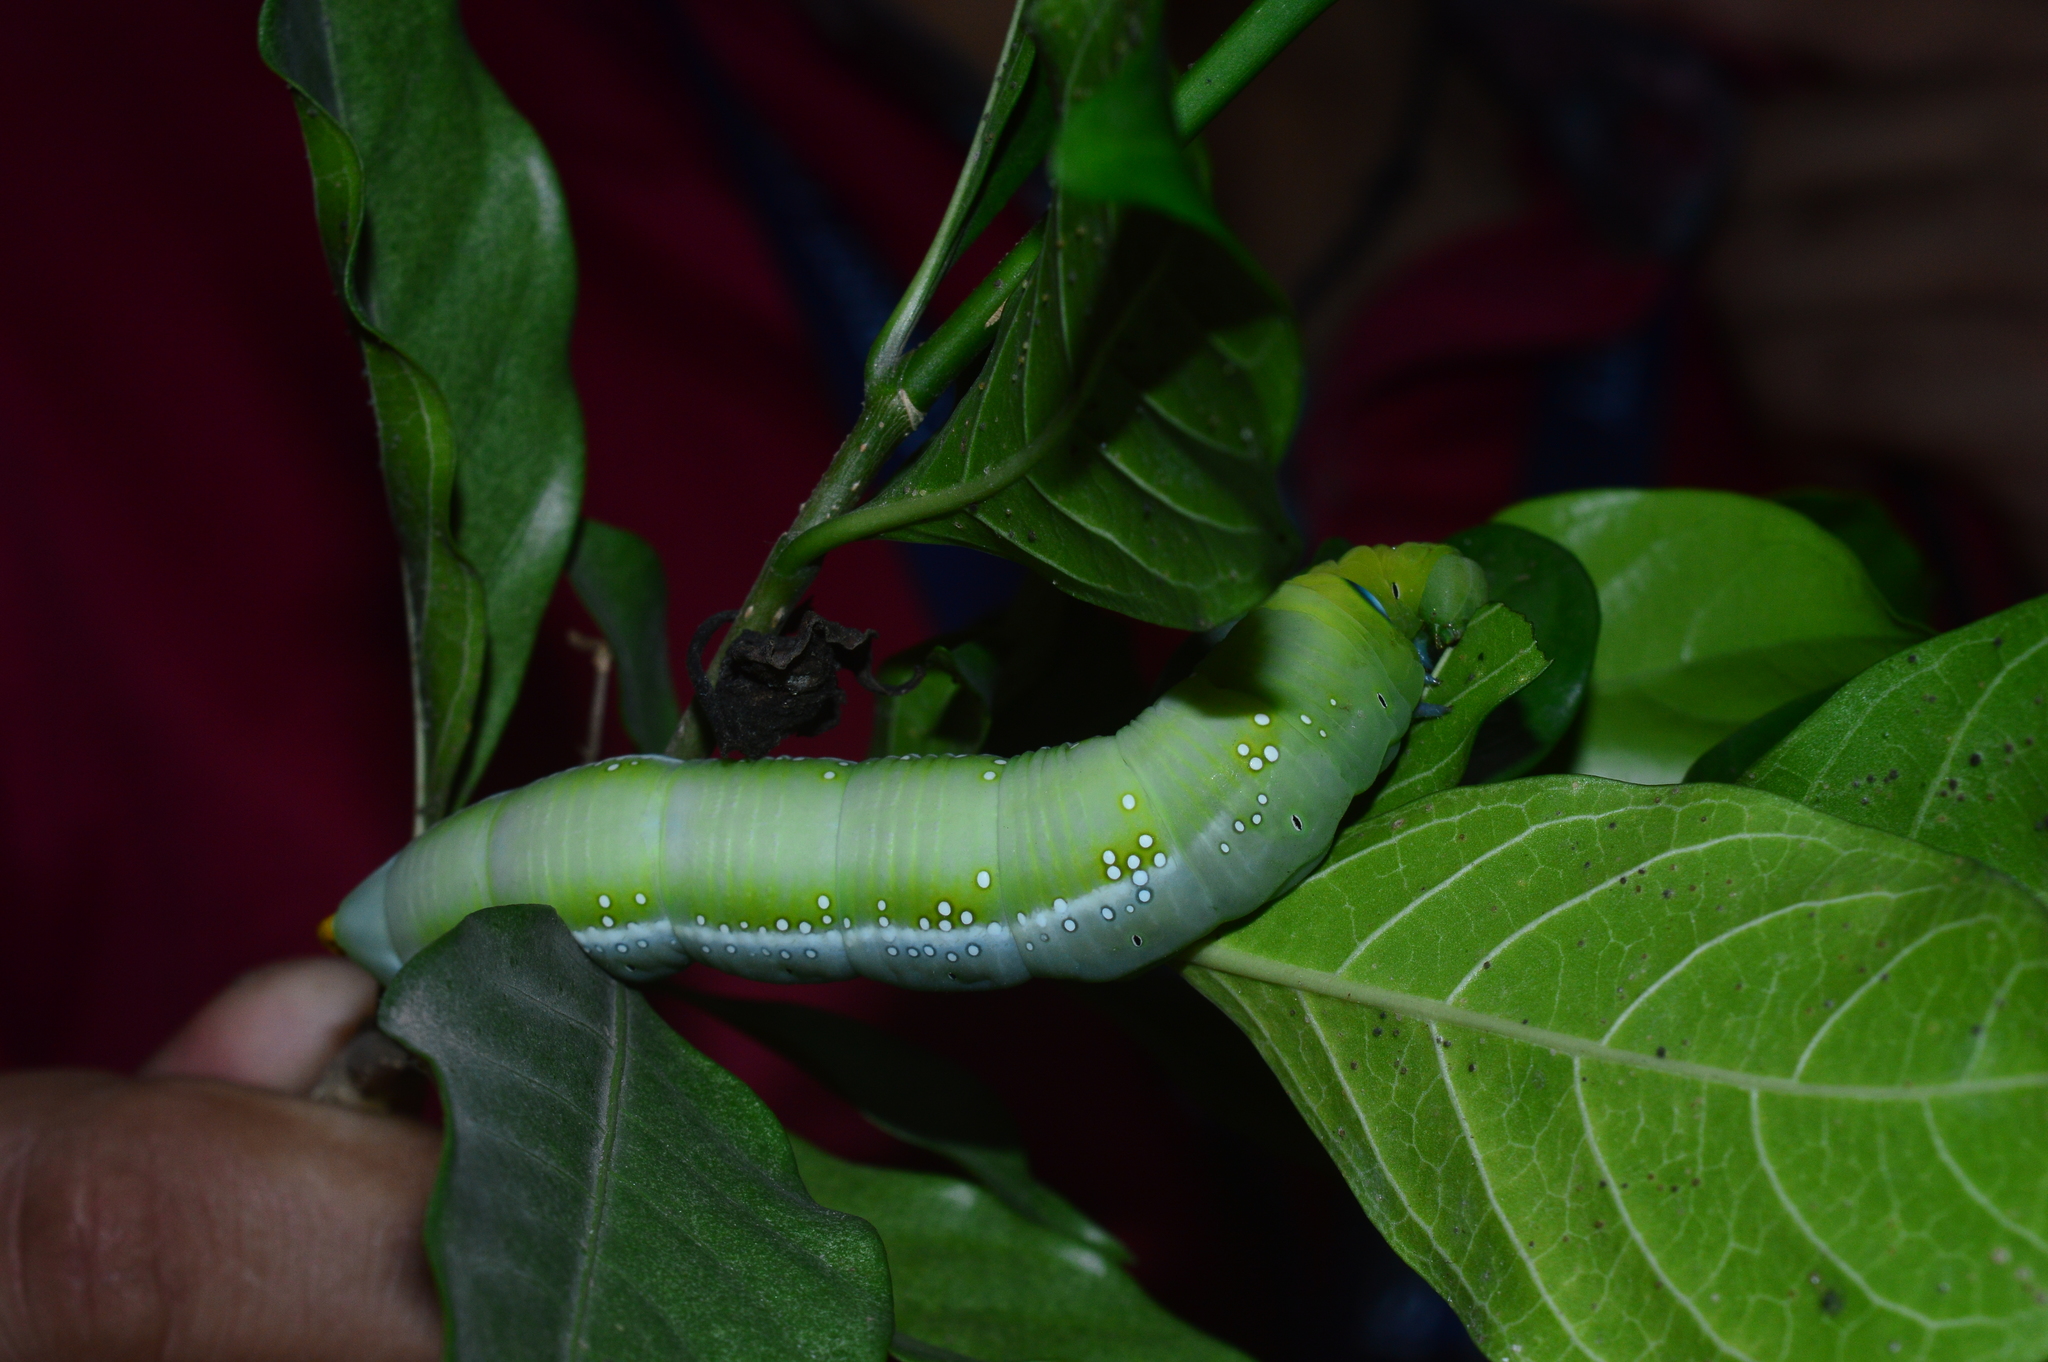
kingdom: Animalia
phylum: Arthropoda
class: Insecta
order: Lepidoptera
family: Sphingidae
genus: Daphnis
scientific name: Daphnis nerii
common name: Oleander hawk-moth
